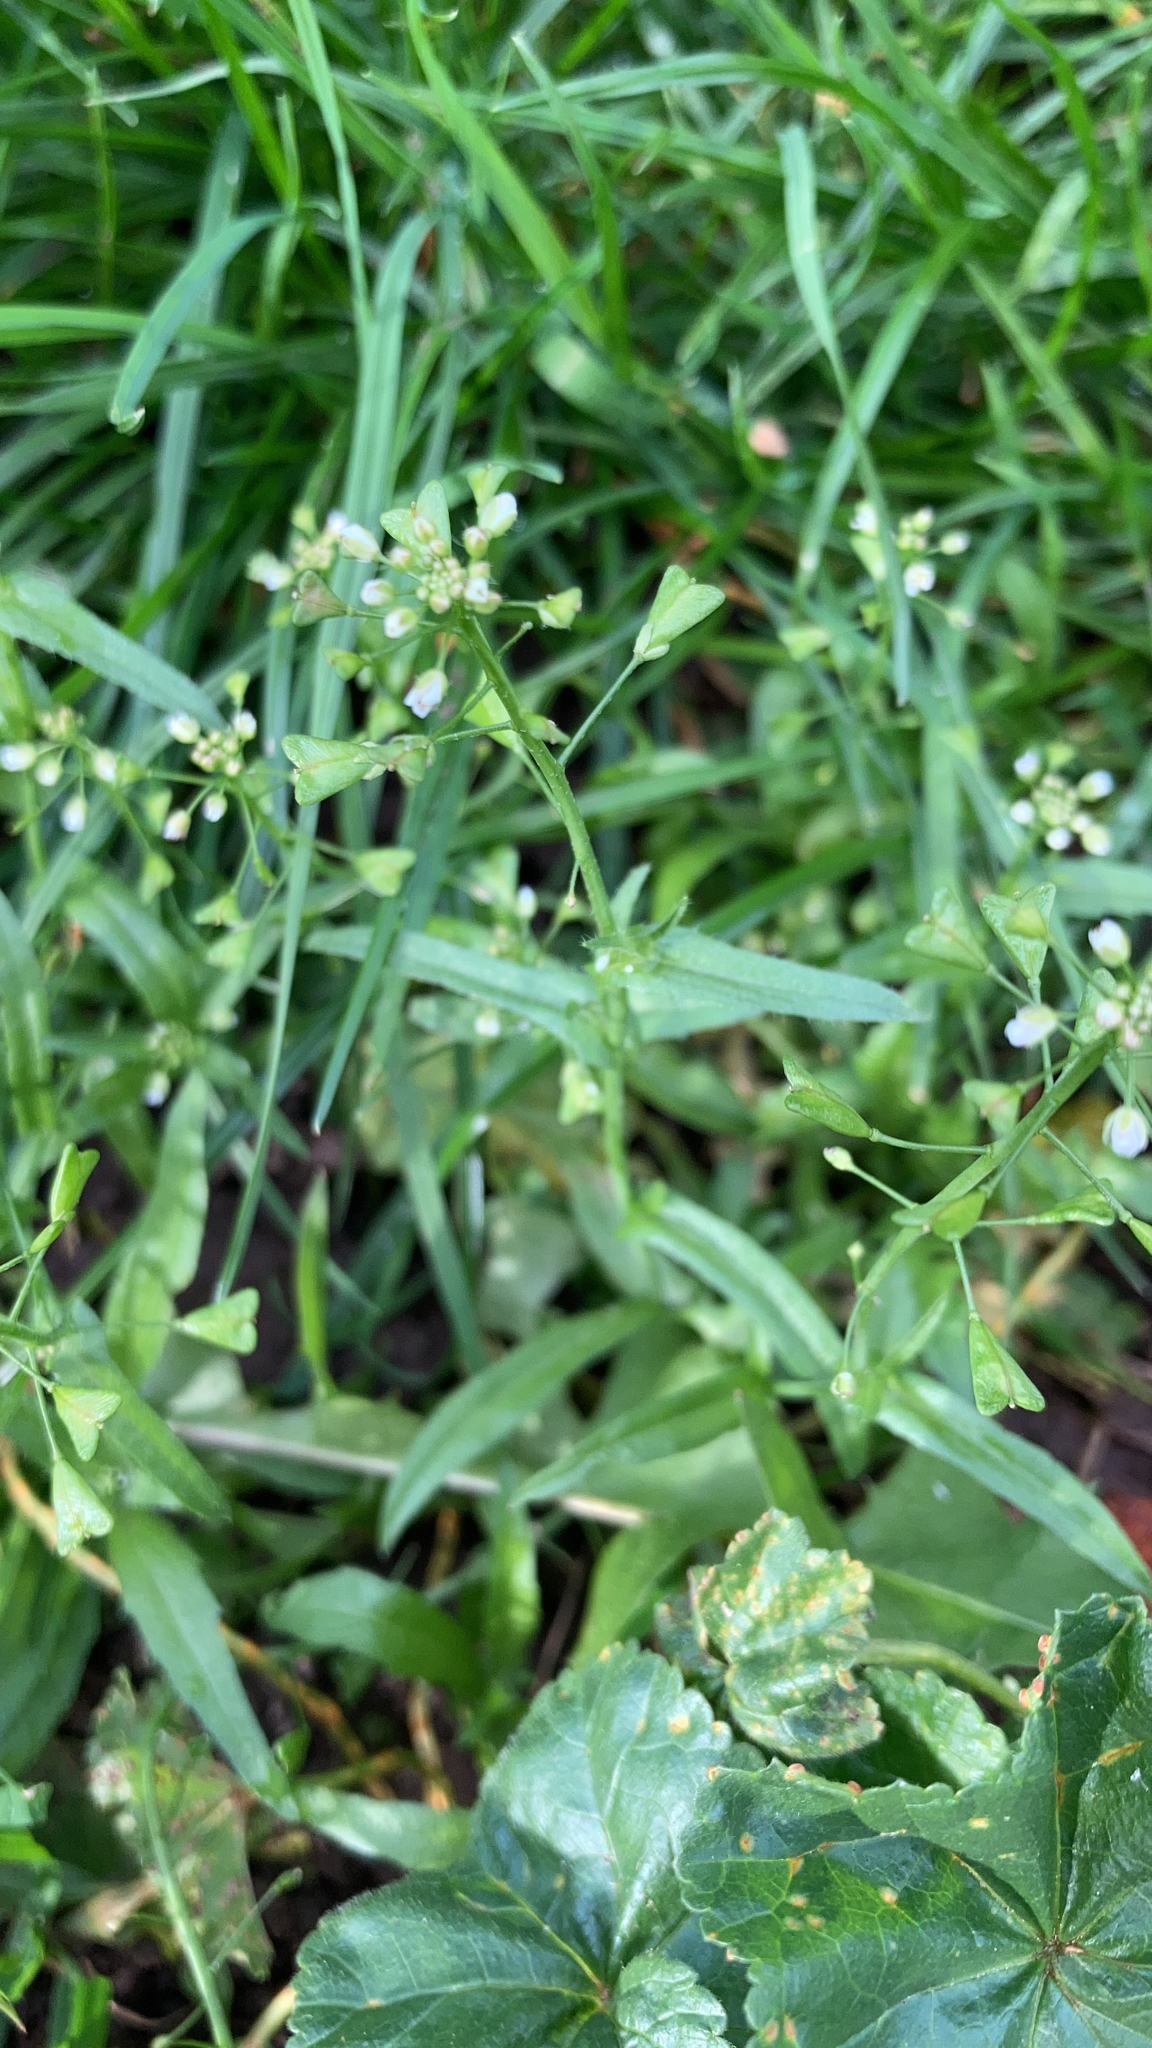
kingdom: Plantae
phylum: Tracheophyta
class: Magnoliopsida
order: Brassicales
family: Brassicaceae
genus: Capsella
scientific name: Capsella bursa-pastoris
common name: Shepherd's purse
